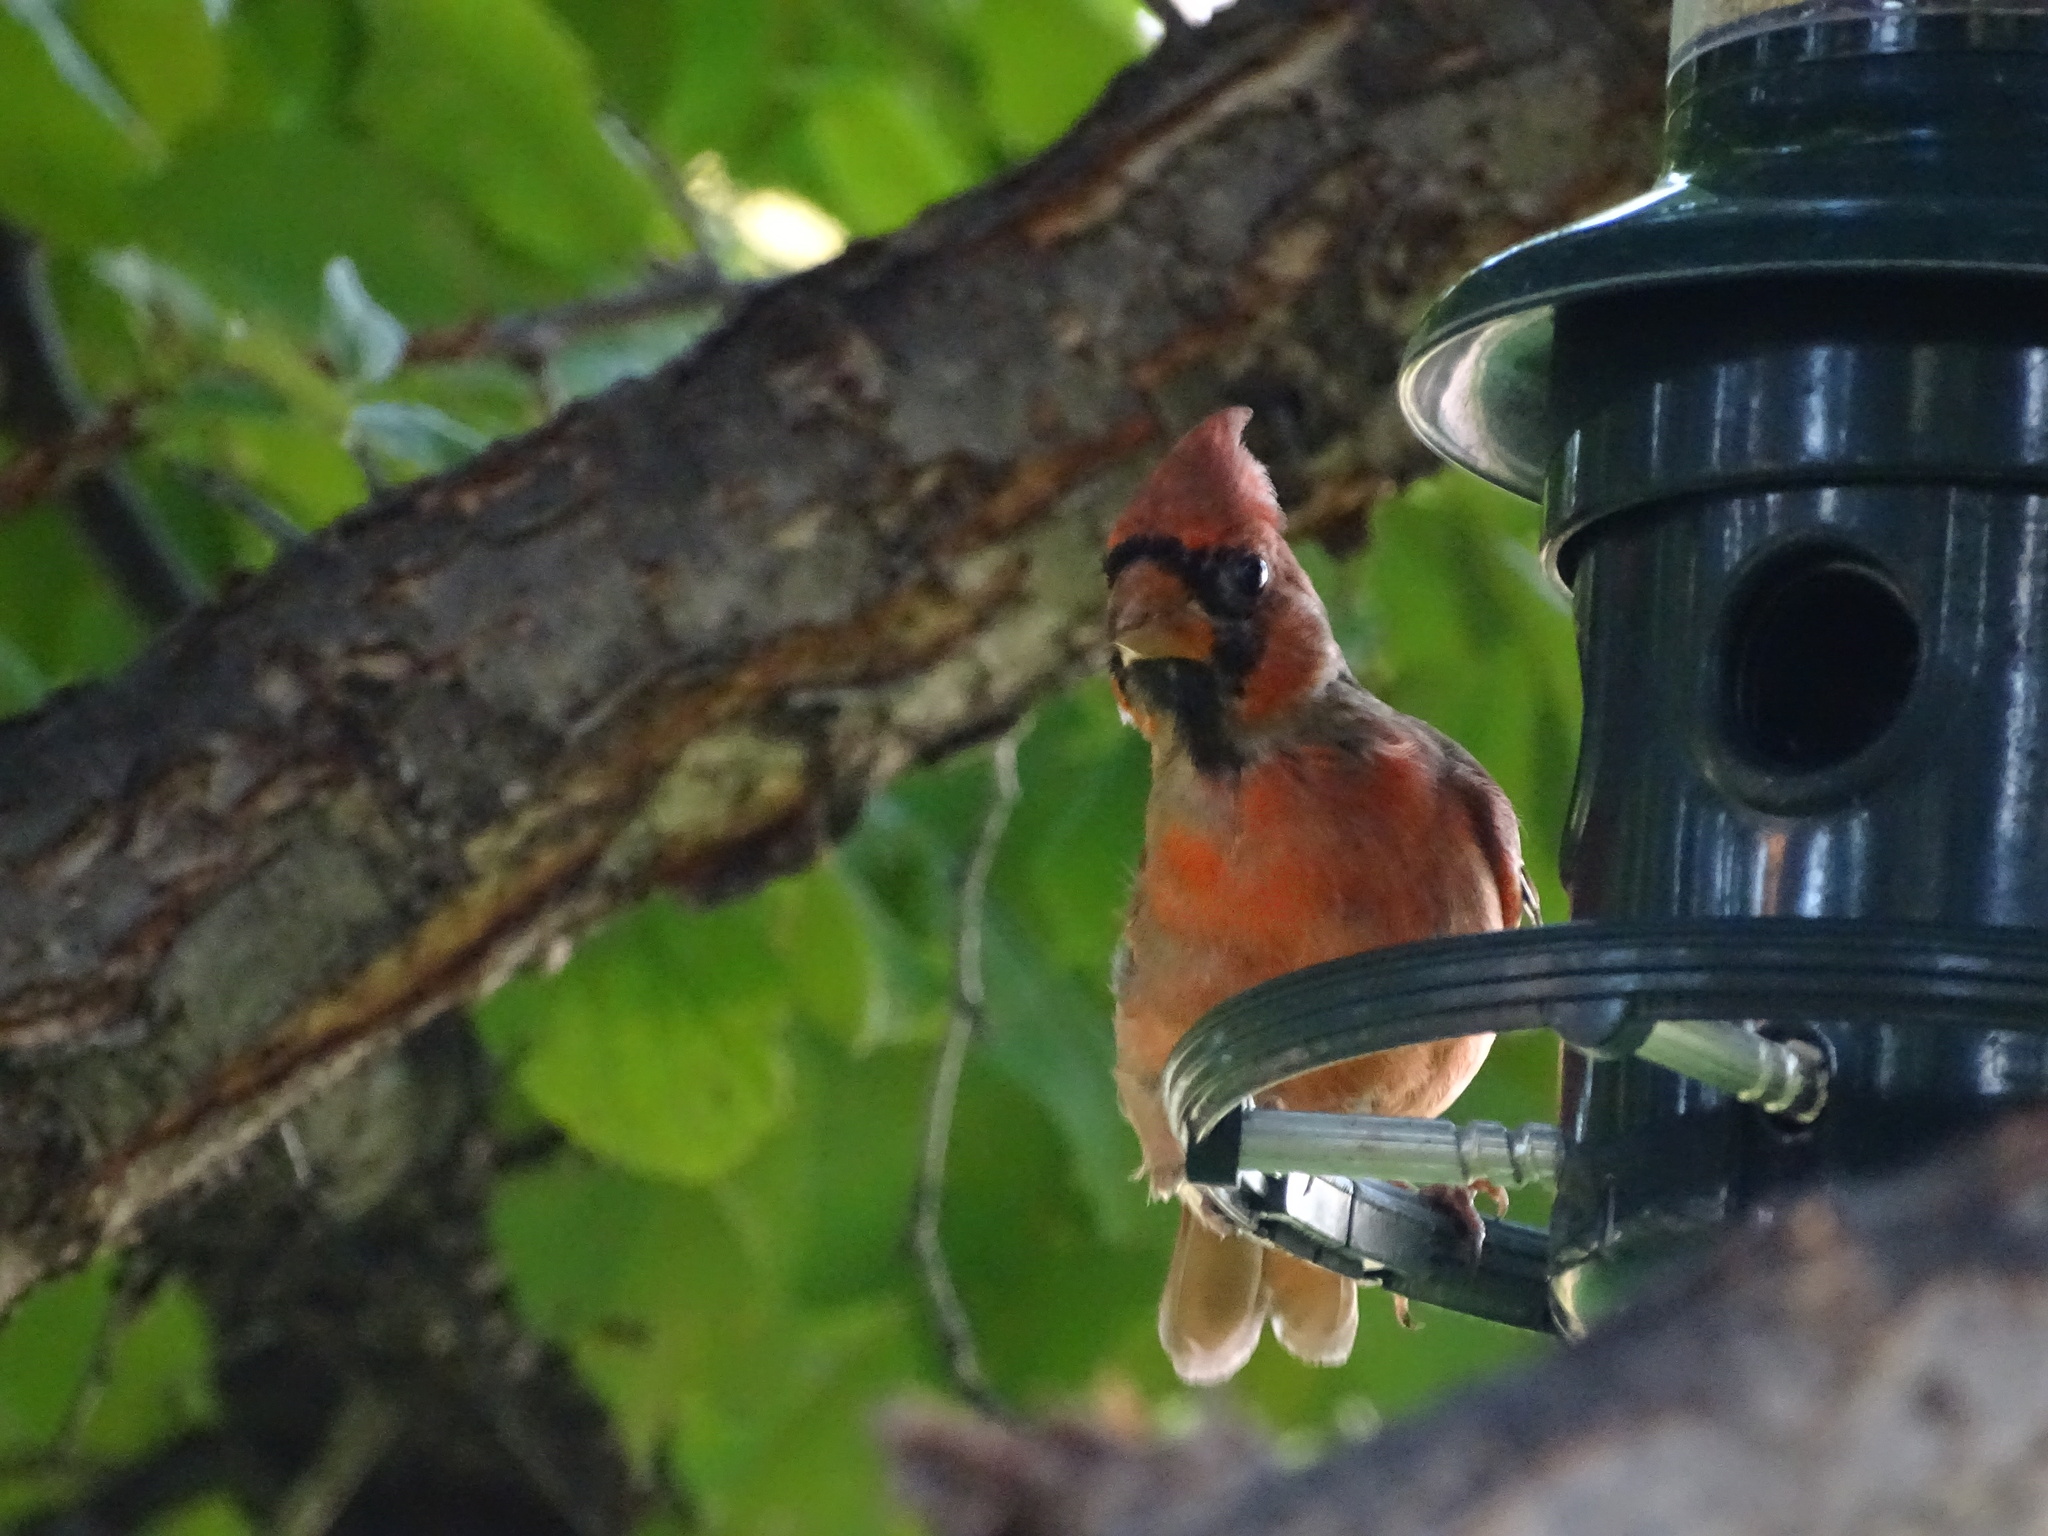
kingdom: Animalia
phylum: Chordata
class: Aves
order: Passeriformes
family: Cardinalidae
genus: Cardinalis
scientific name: Cardinalis cardinalis
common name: Northern cardinal
